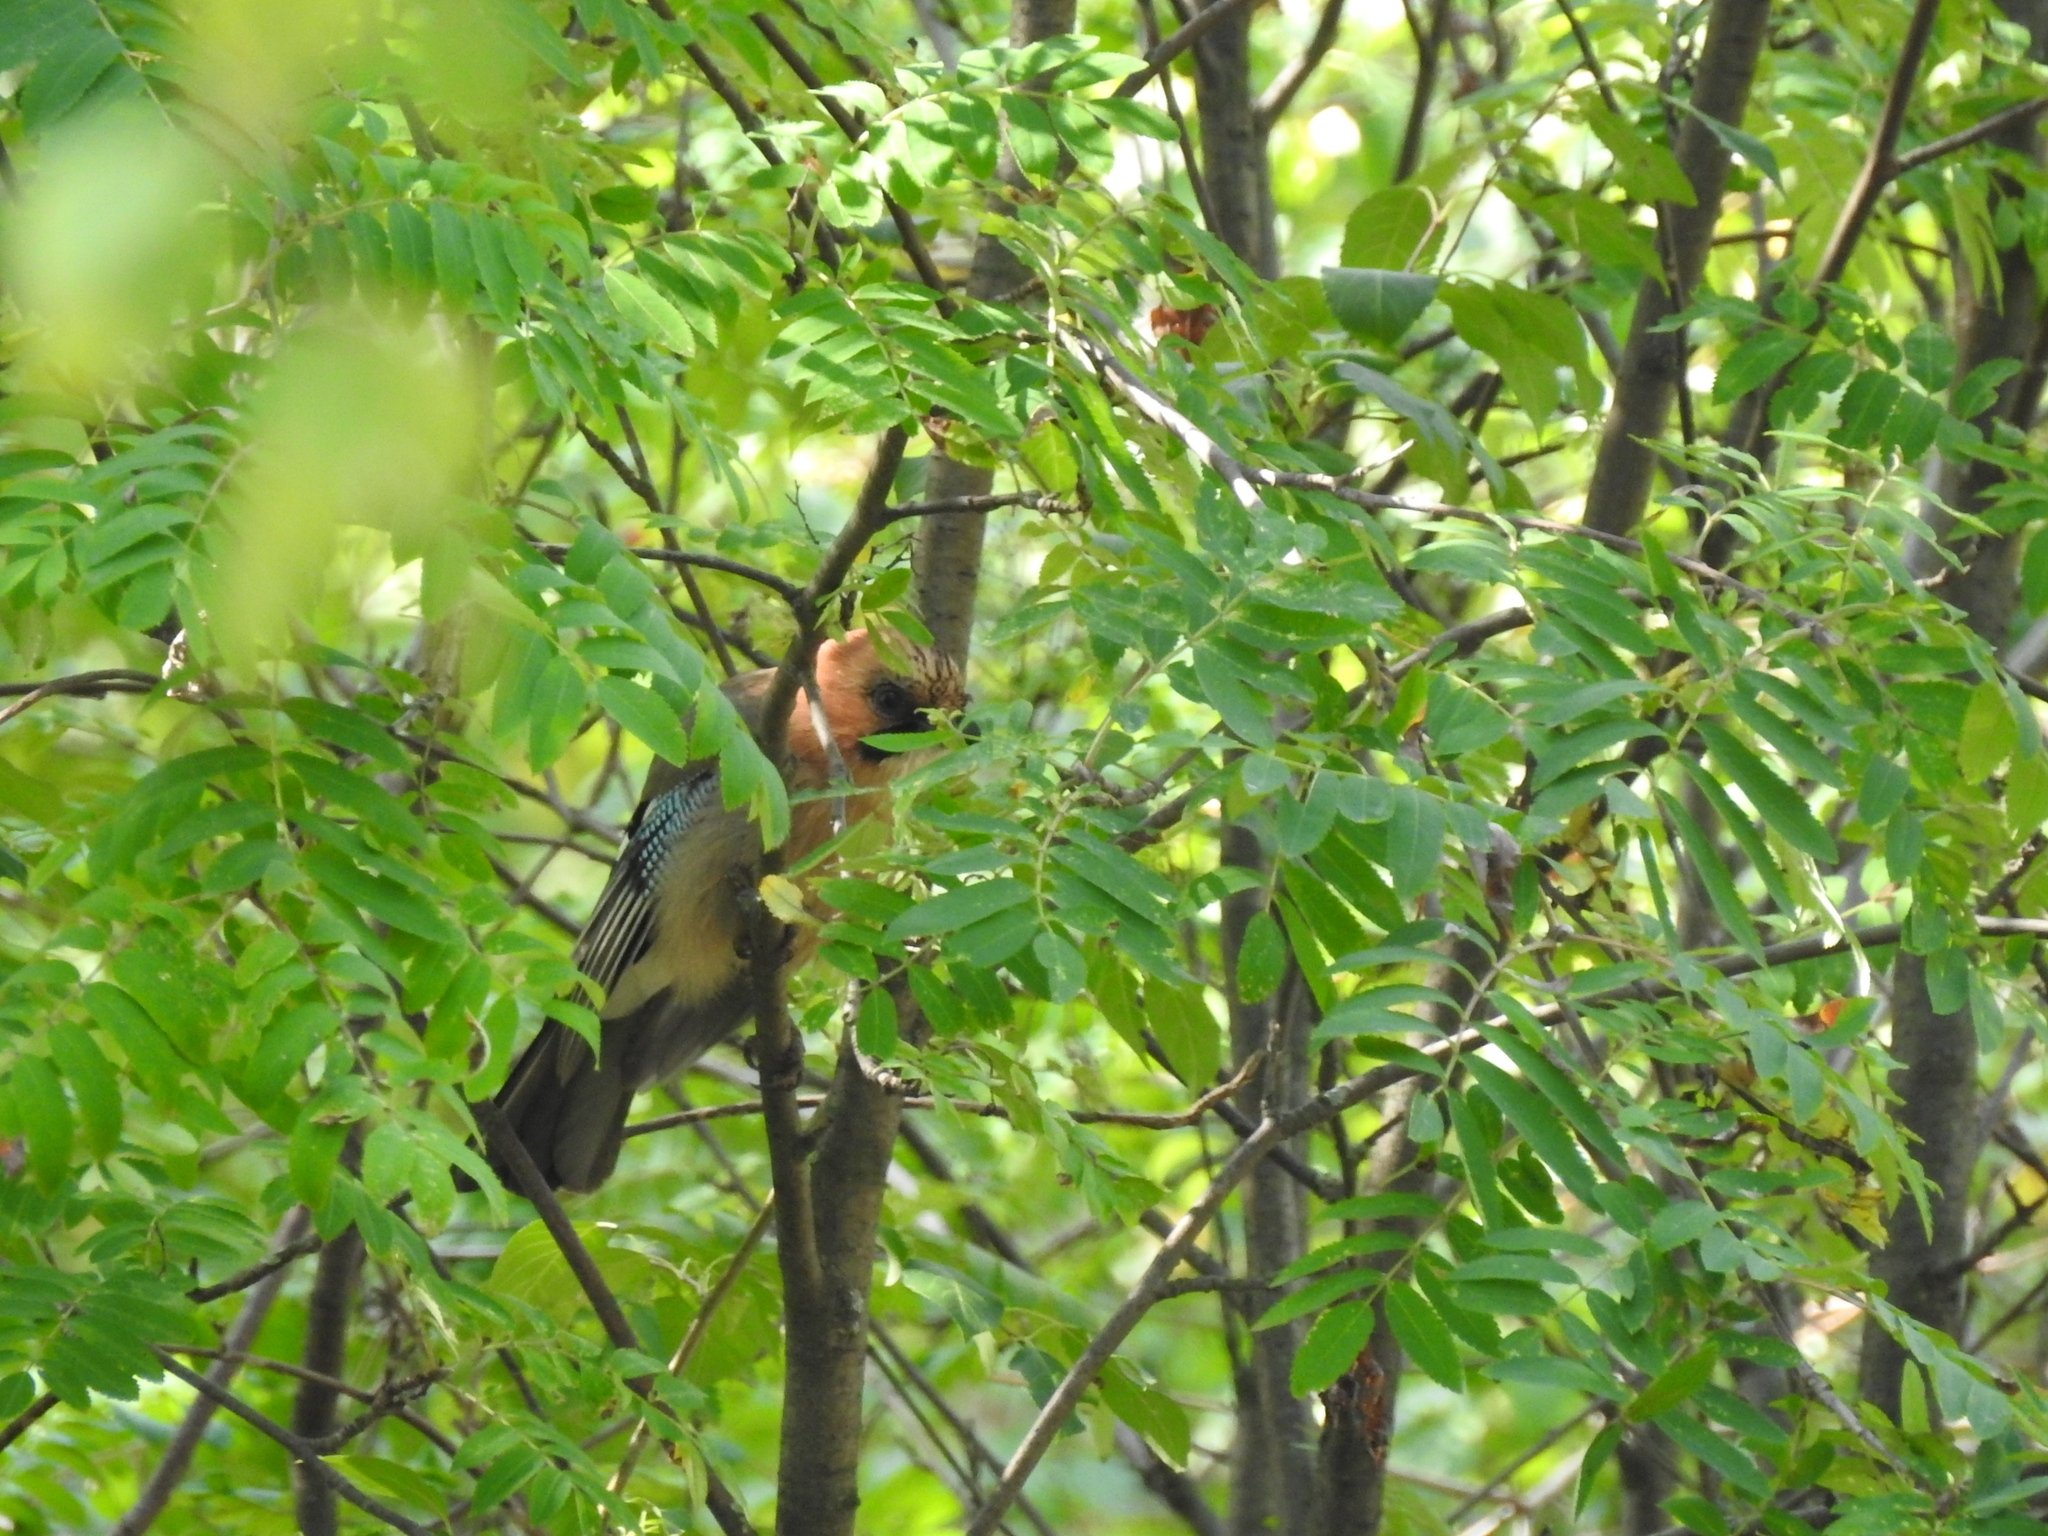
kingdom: Animalia
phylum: Chordata
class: Aves
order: Passeriformes
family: Corvidae
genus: Garrulus
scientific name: Garrulus glandarius
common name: Eurasian jay
